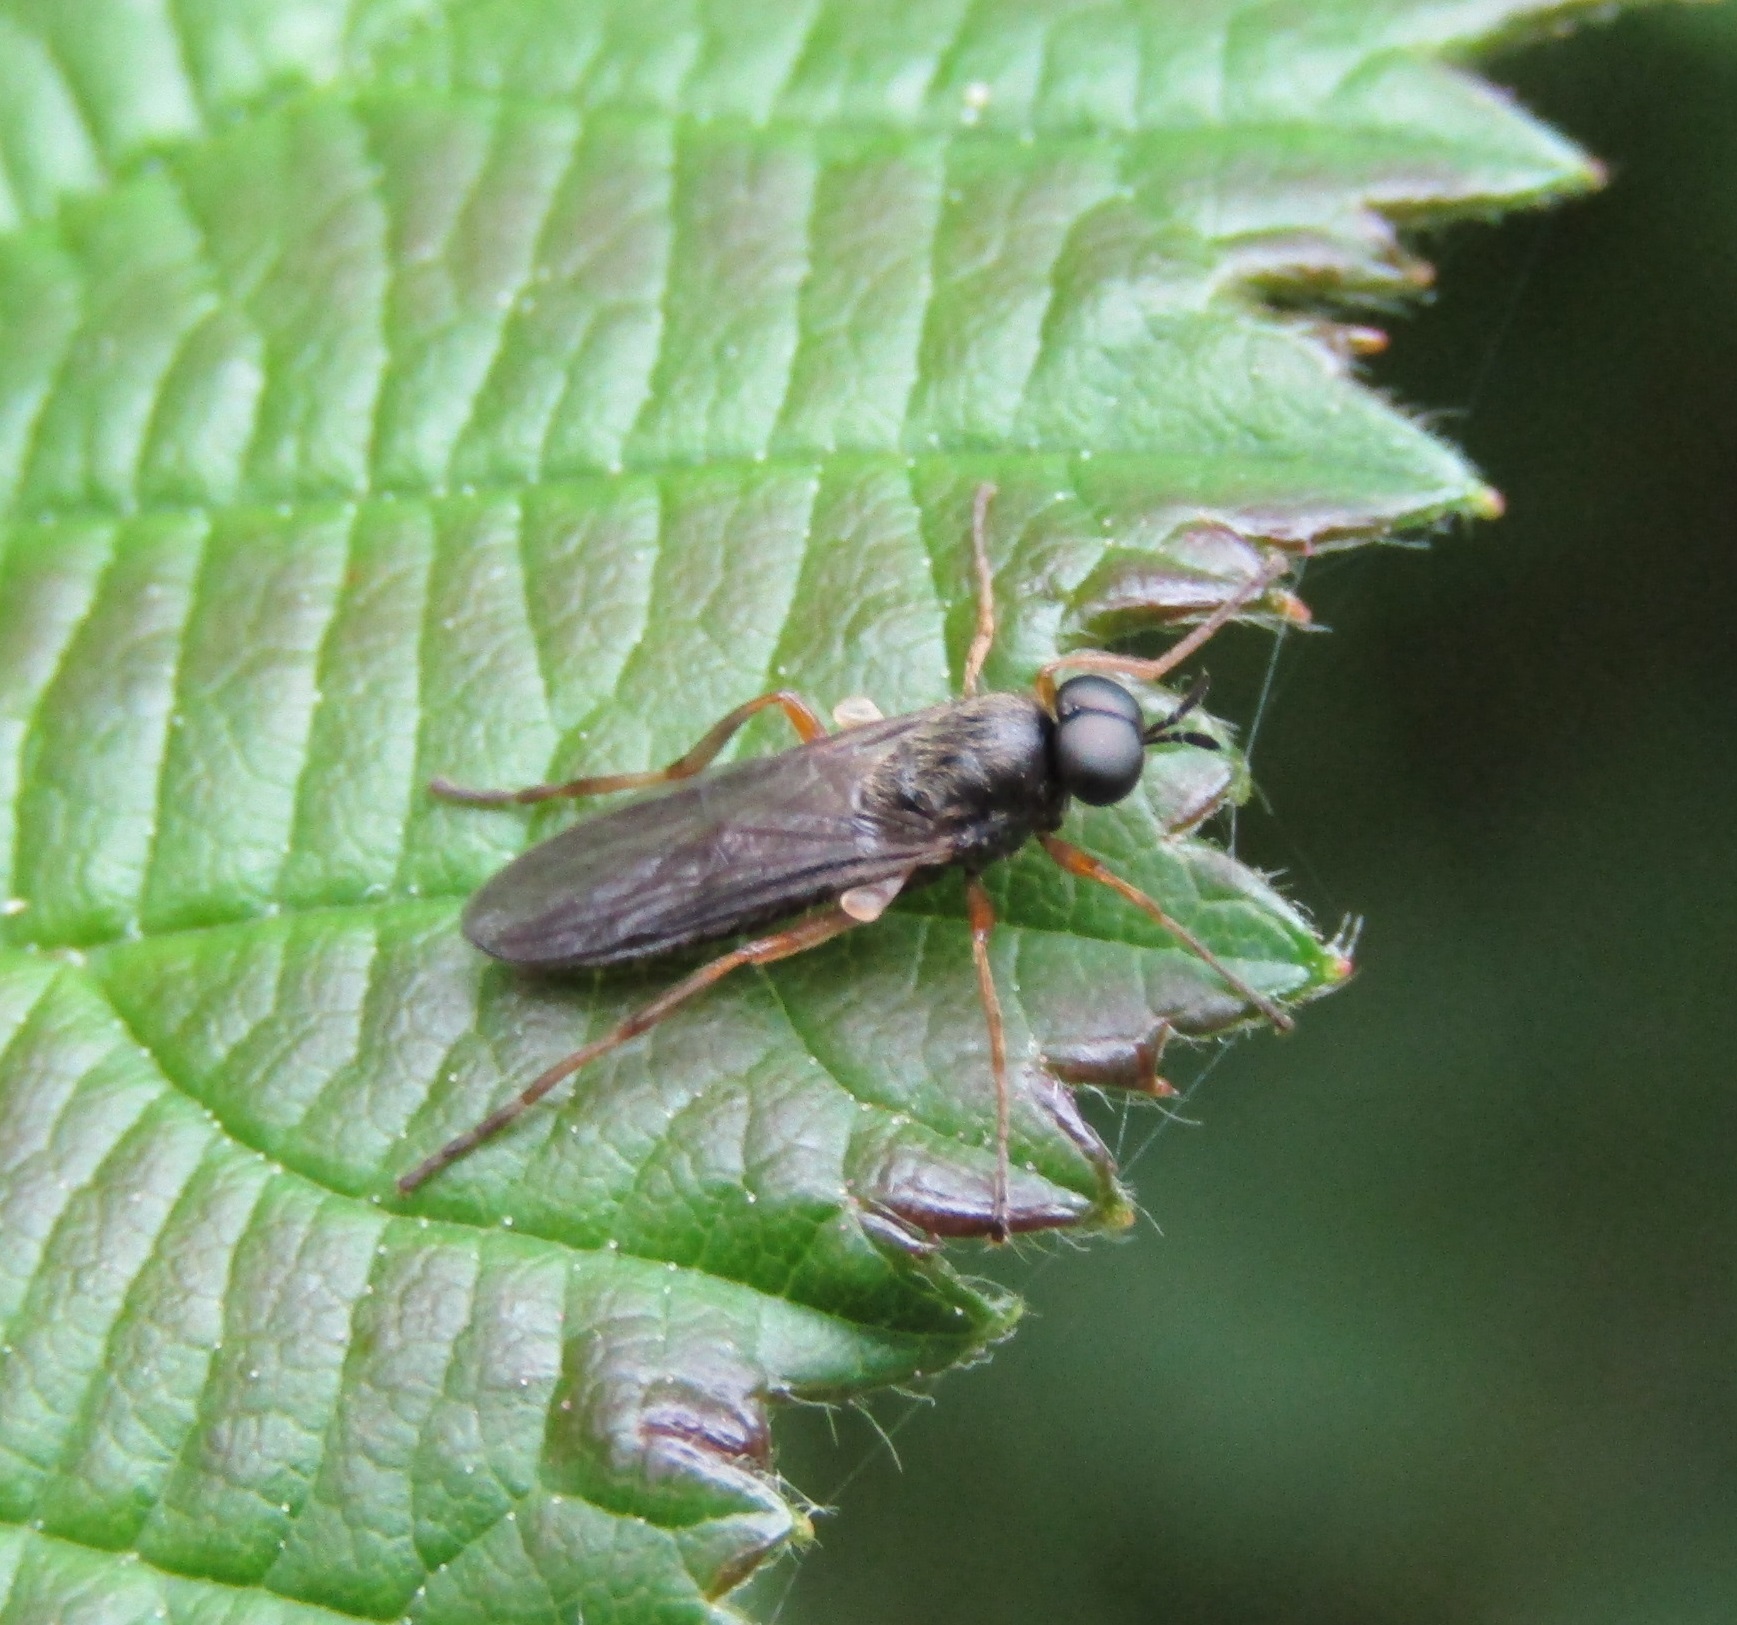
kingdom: Animalia
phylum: Arthropoda
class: Insecta
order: Diptera
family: Stratiomyidae
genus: Inopus
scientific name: Inopus rubriceps
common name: Soldier fly
